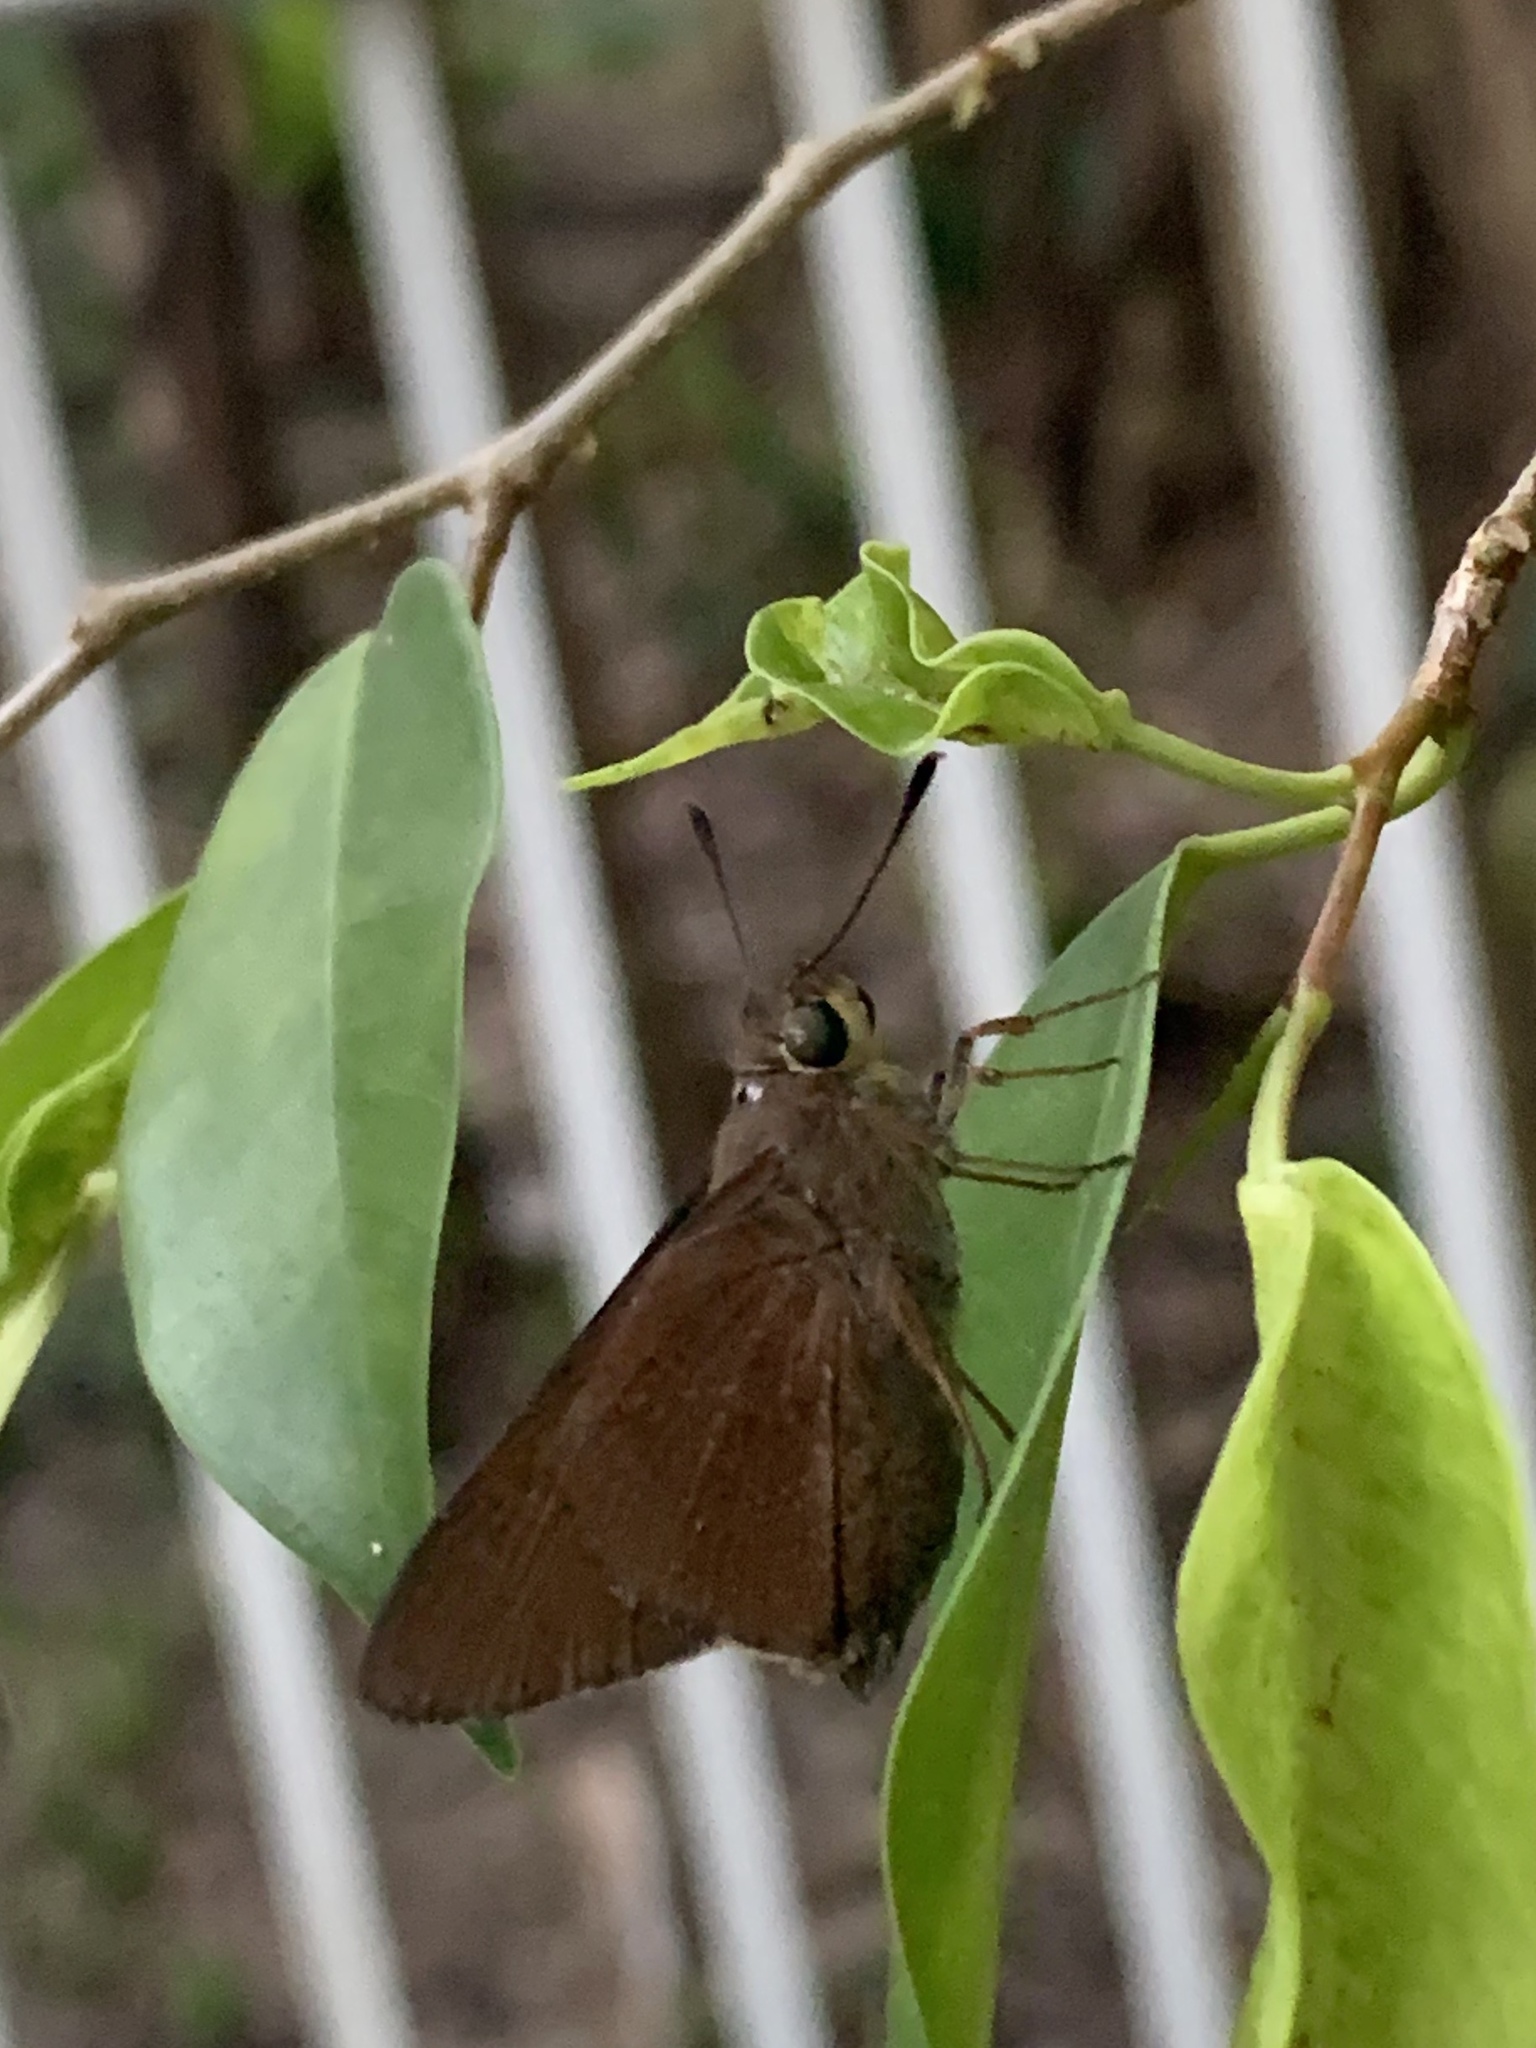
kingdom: Animalia
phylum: Arthropoda
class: Insecta
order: Lepidoptera
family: Hesperiidae
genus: Asbolis
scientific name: Asbolis capucinus
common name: Monk skipper
